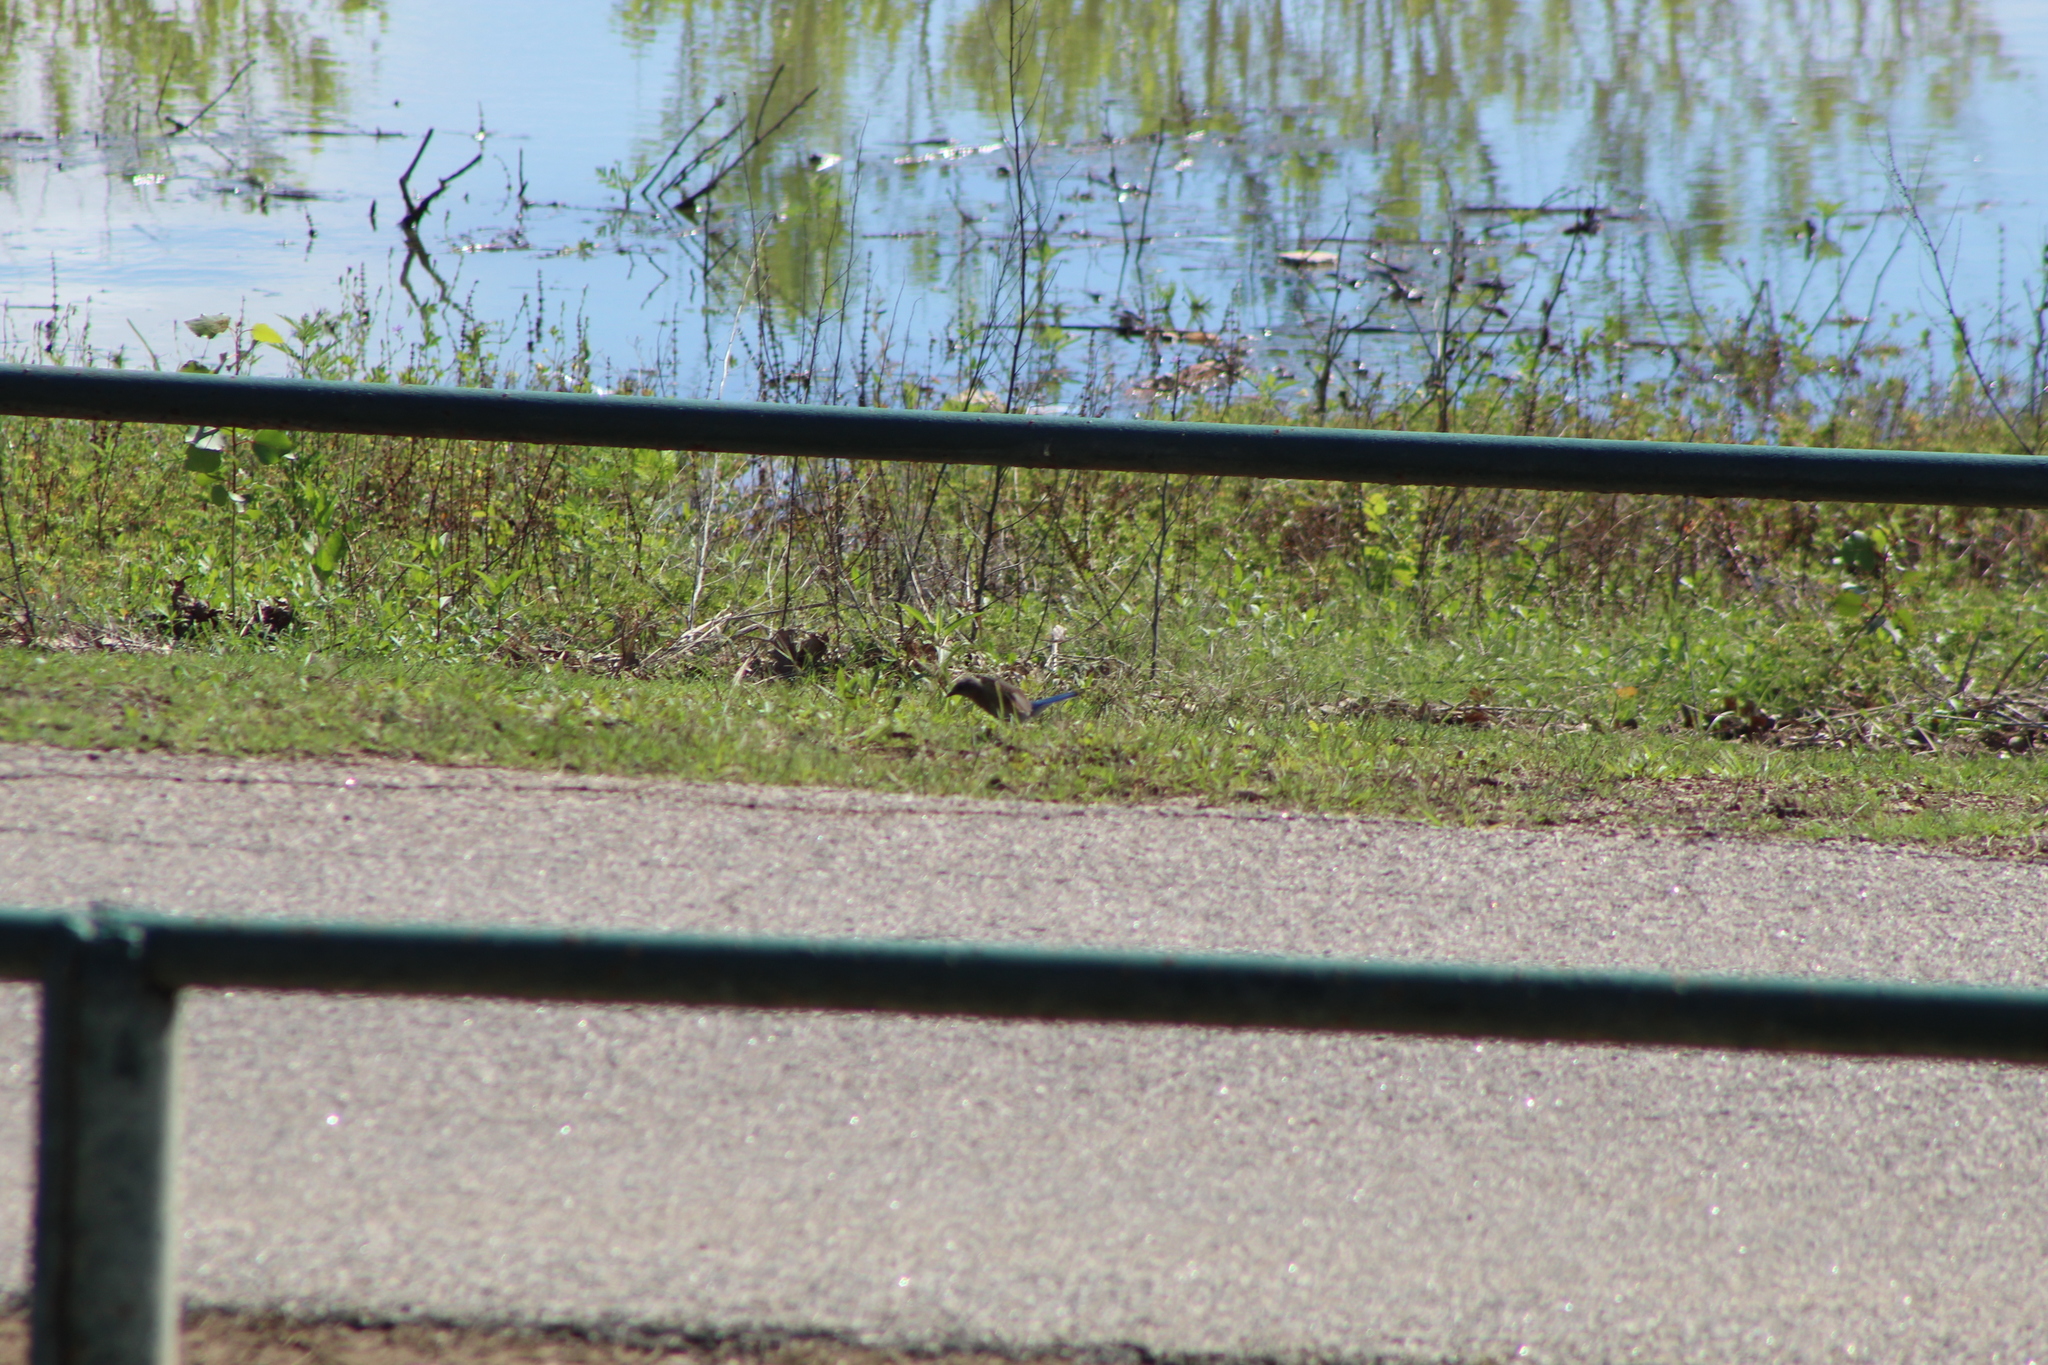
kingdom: Animalia
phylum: Chordata
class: Aves
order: Passeriformes
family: Turdidae
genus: Sialia
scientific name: Sialia sialis
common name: Eastern bluebird
